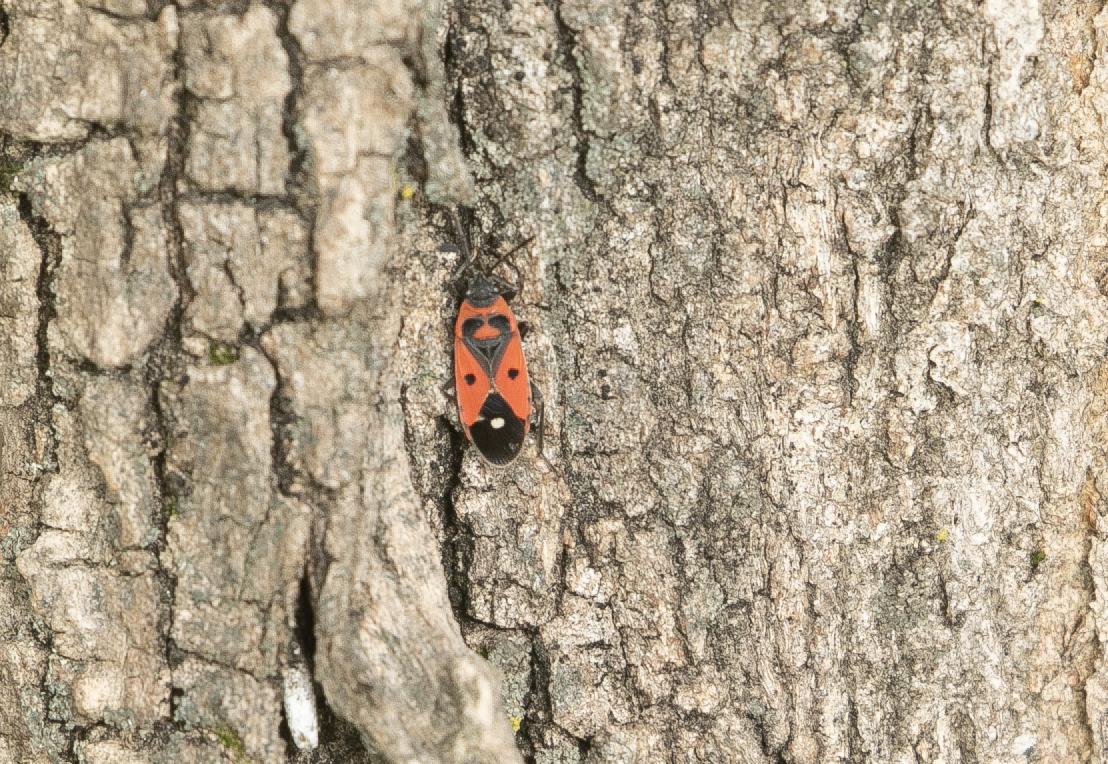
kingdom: Animalia
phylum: Arthropoda
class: Insecta
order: Hemiptera
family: Lygaeidae
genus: Melanocoryphus
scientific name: Melanocoryphus albomaculatus
